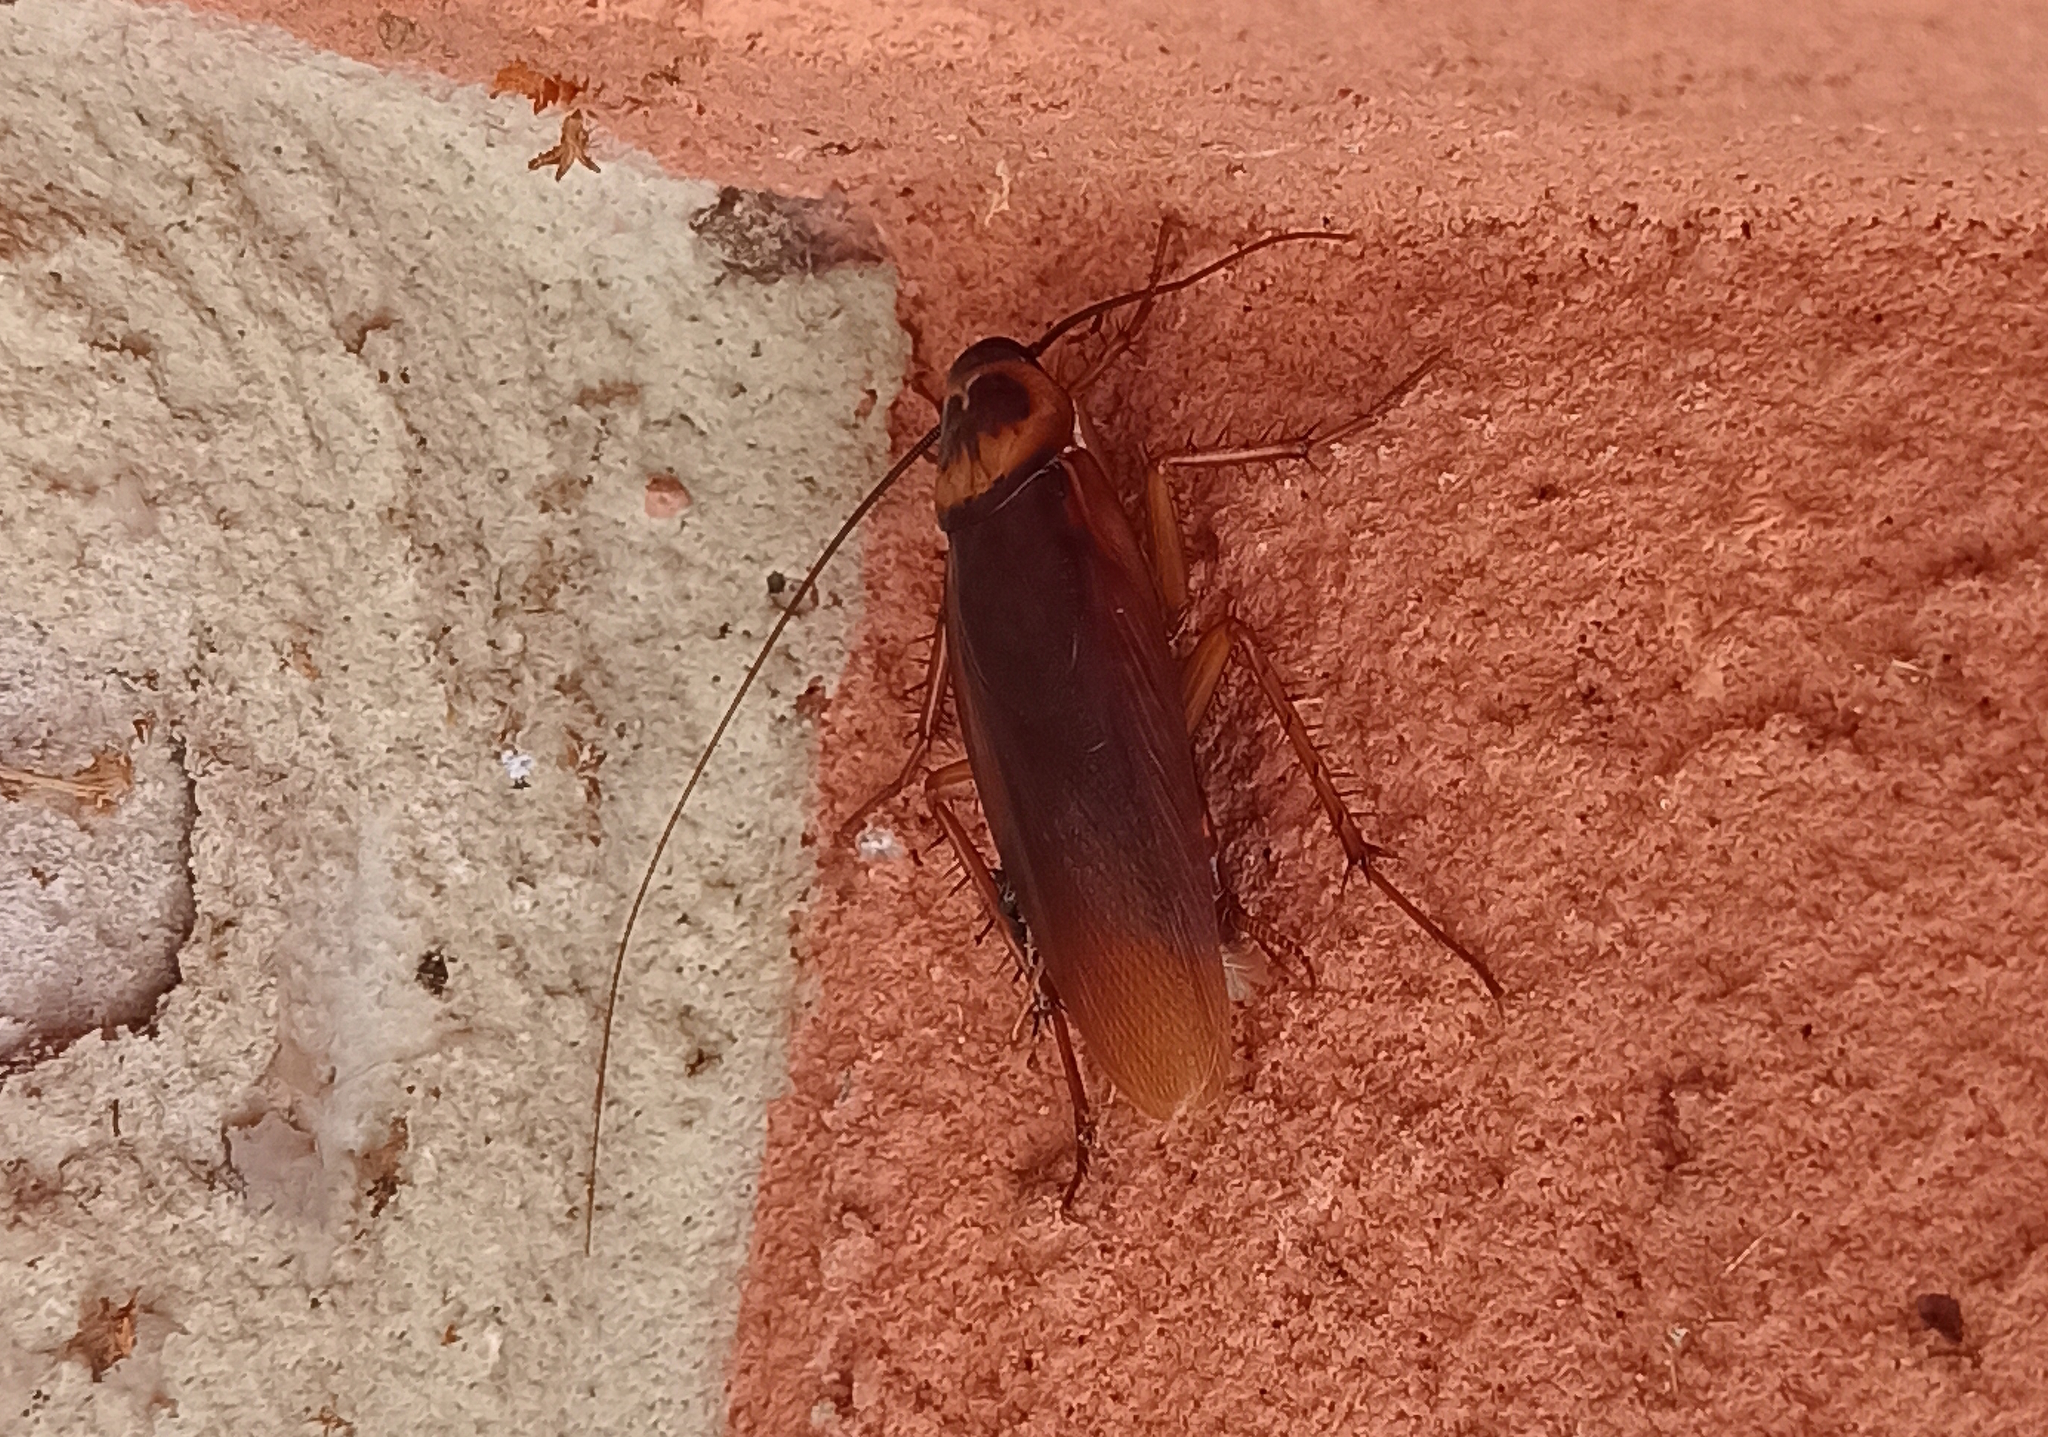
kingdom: Animalia
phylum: Arthropoda
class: Insecta
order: Blattodea
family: Blattidae
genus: Periplaneta
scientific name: Periplaneta americana
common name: American cockroach
